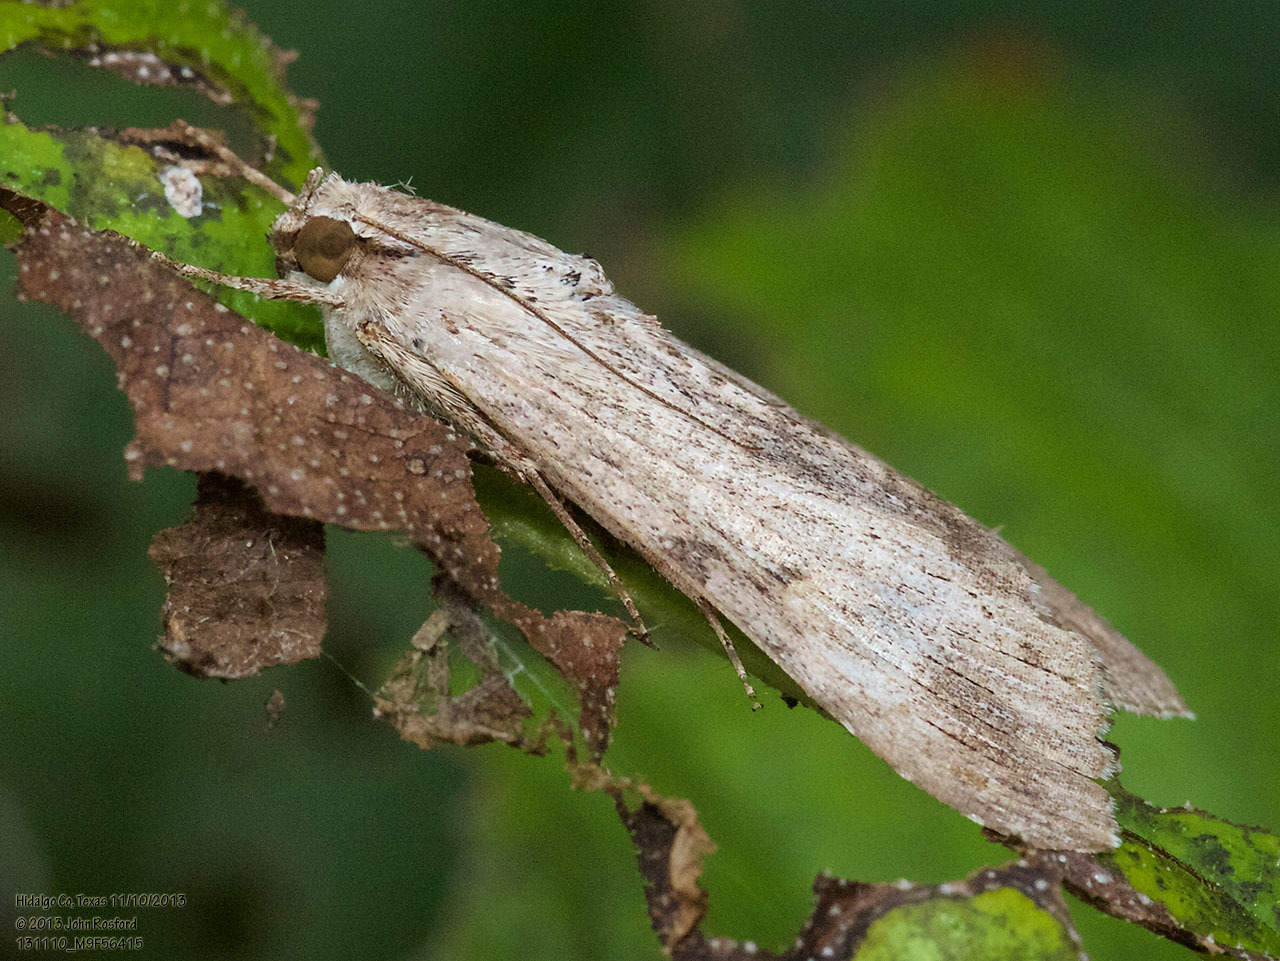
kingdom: Animalia
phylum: Arthropoda
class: Insecta
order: Lepidoptera
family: Erebidae
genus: Melipotis
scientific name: Melipotis acontioides
